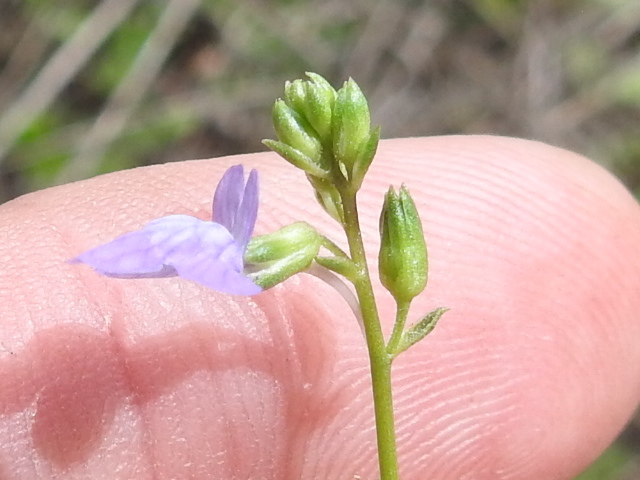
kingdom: Plantae
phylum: Tracheophyta
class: Magnoliopsida
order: Lamiales
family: Plantaginaceae
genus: Nuttallanthus
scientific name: Nuttallanthus texanus
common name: Texas toadflax
